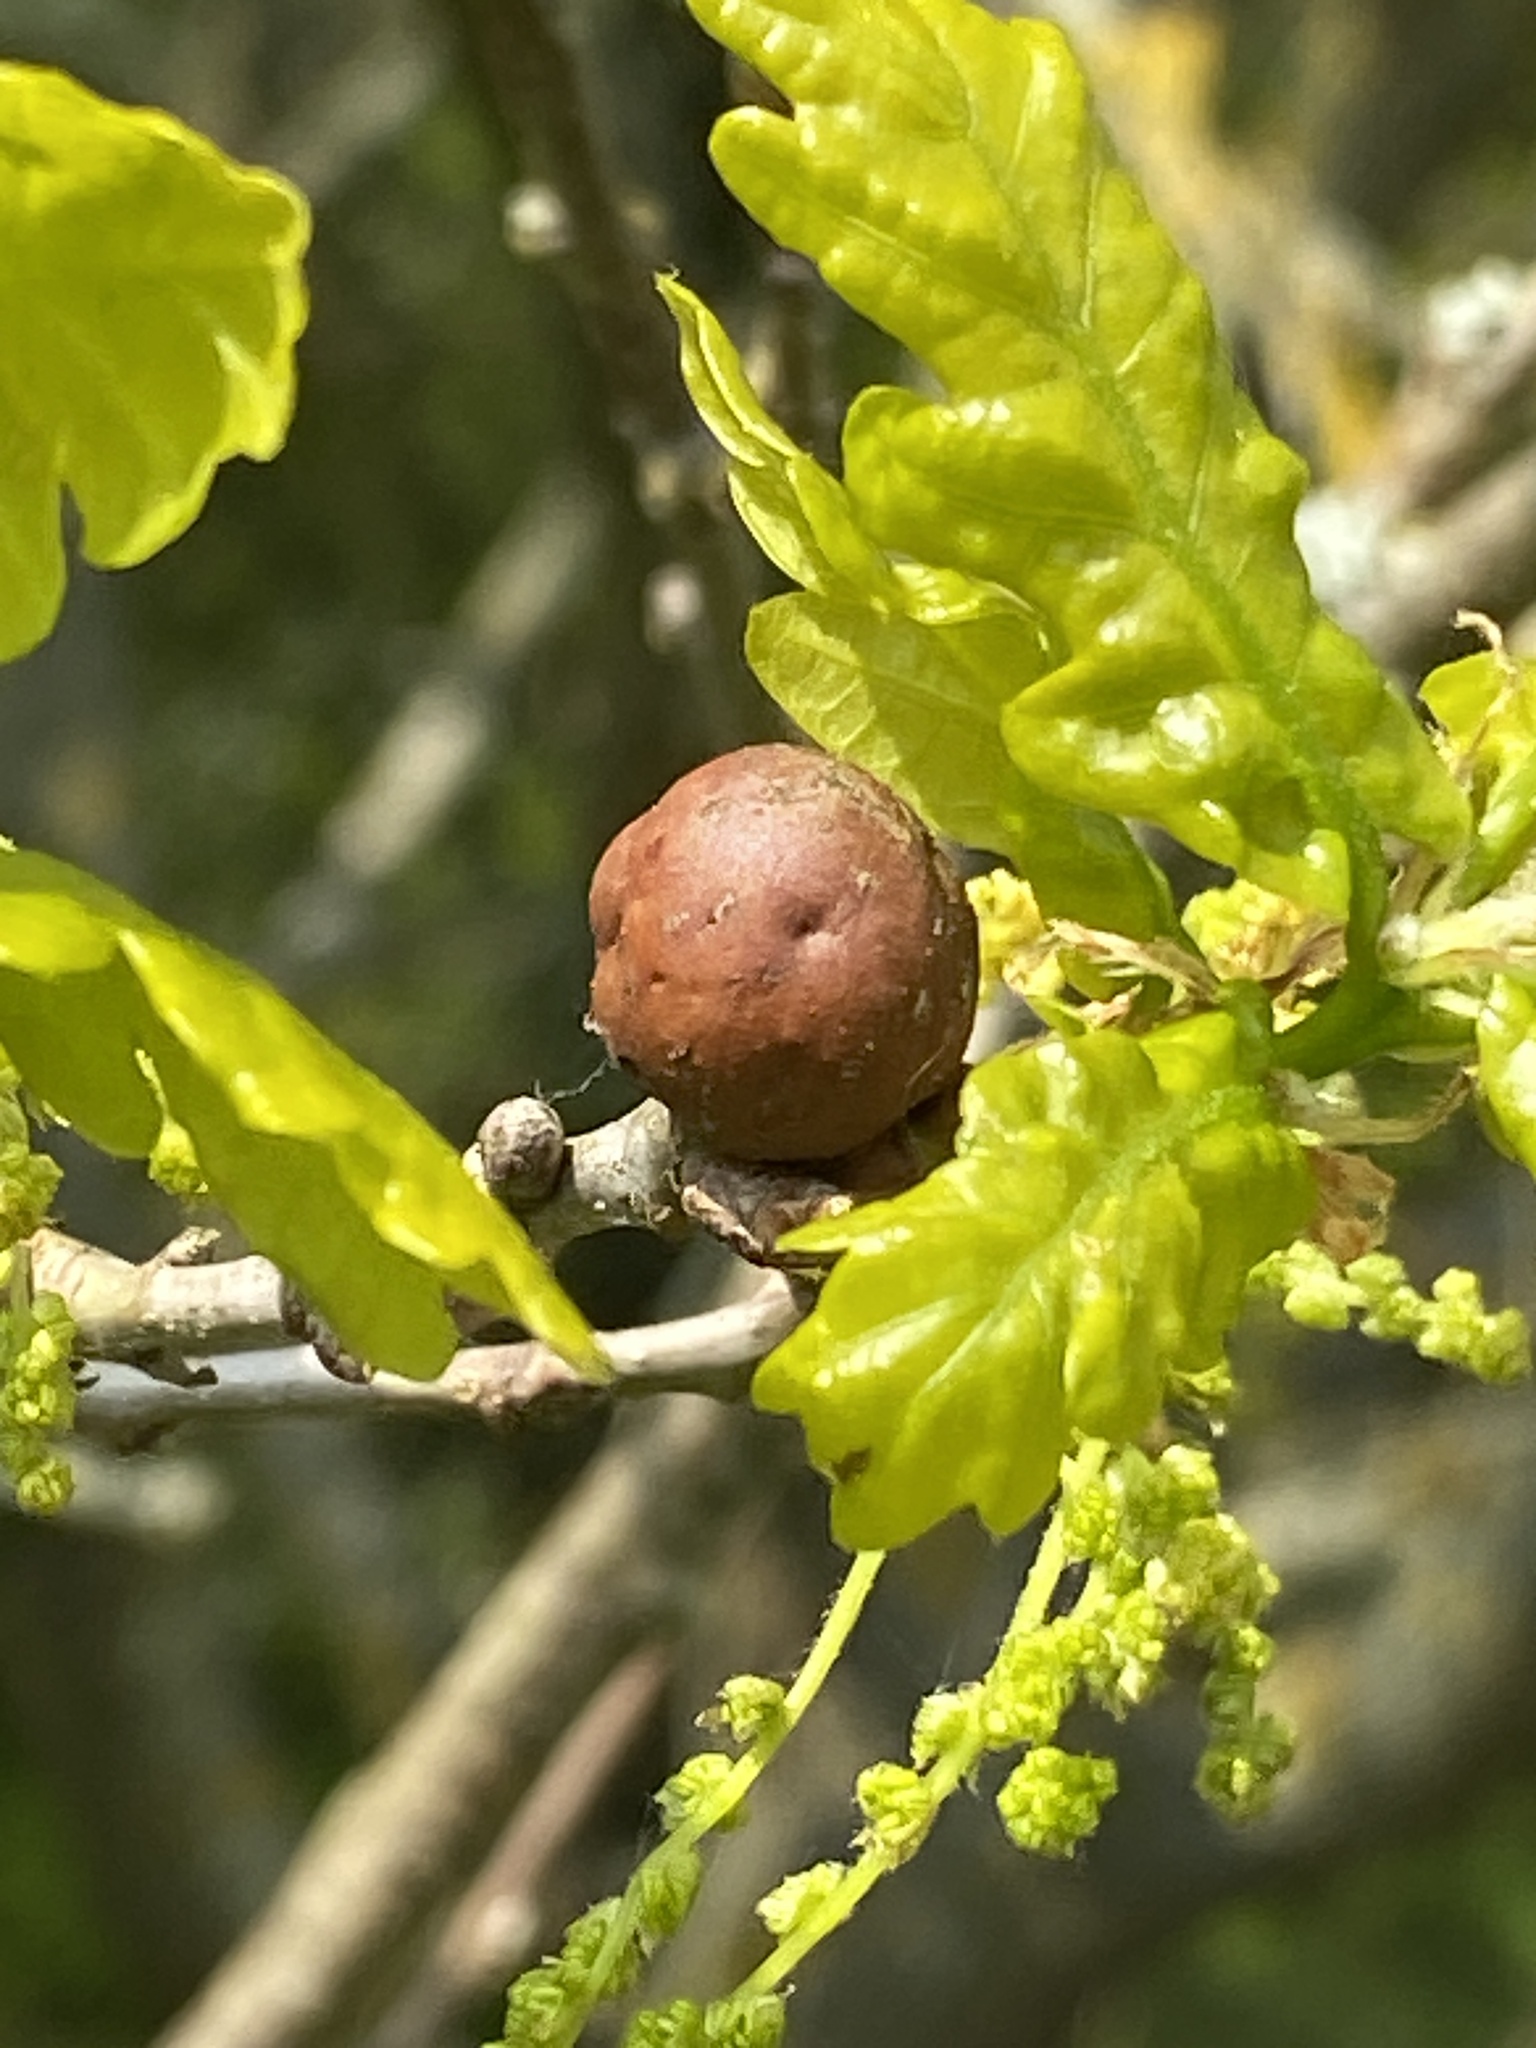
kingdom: Animalia
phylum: Arthropoda
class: Insecta
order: Hymenoptera
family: Cynipidae
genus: Andricus
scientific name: Andricus kollari
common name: Marble gall
